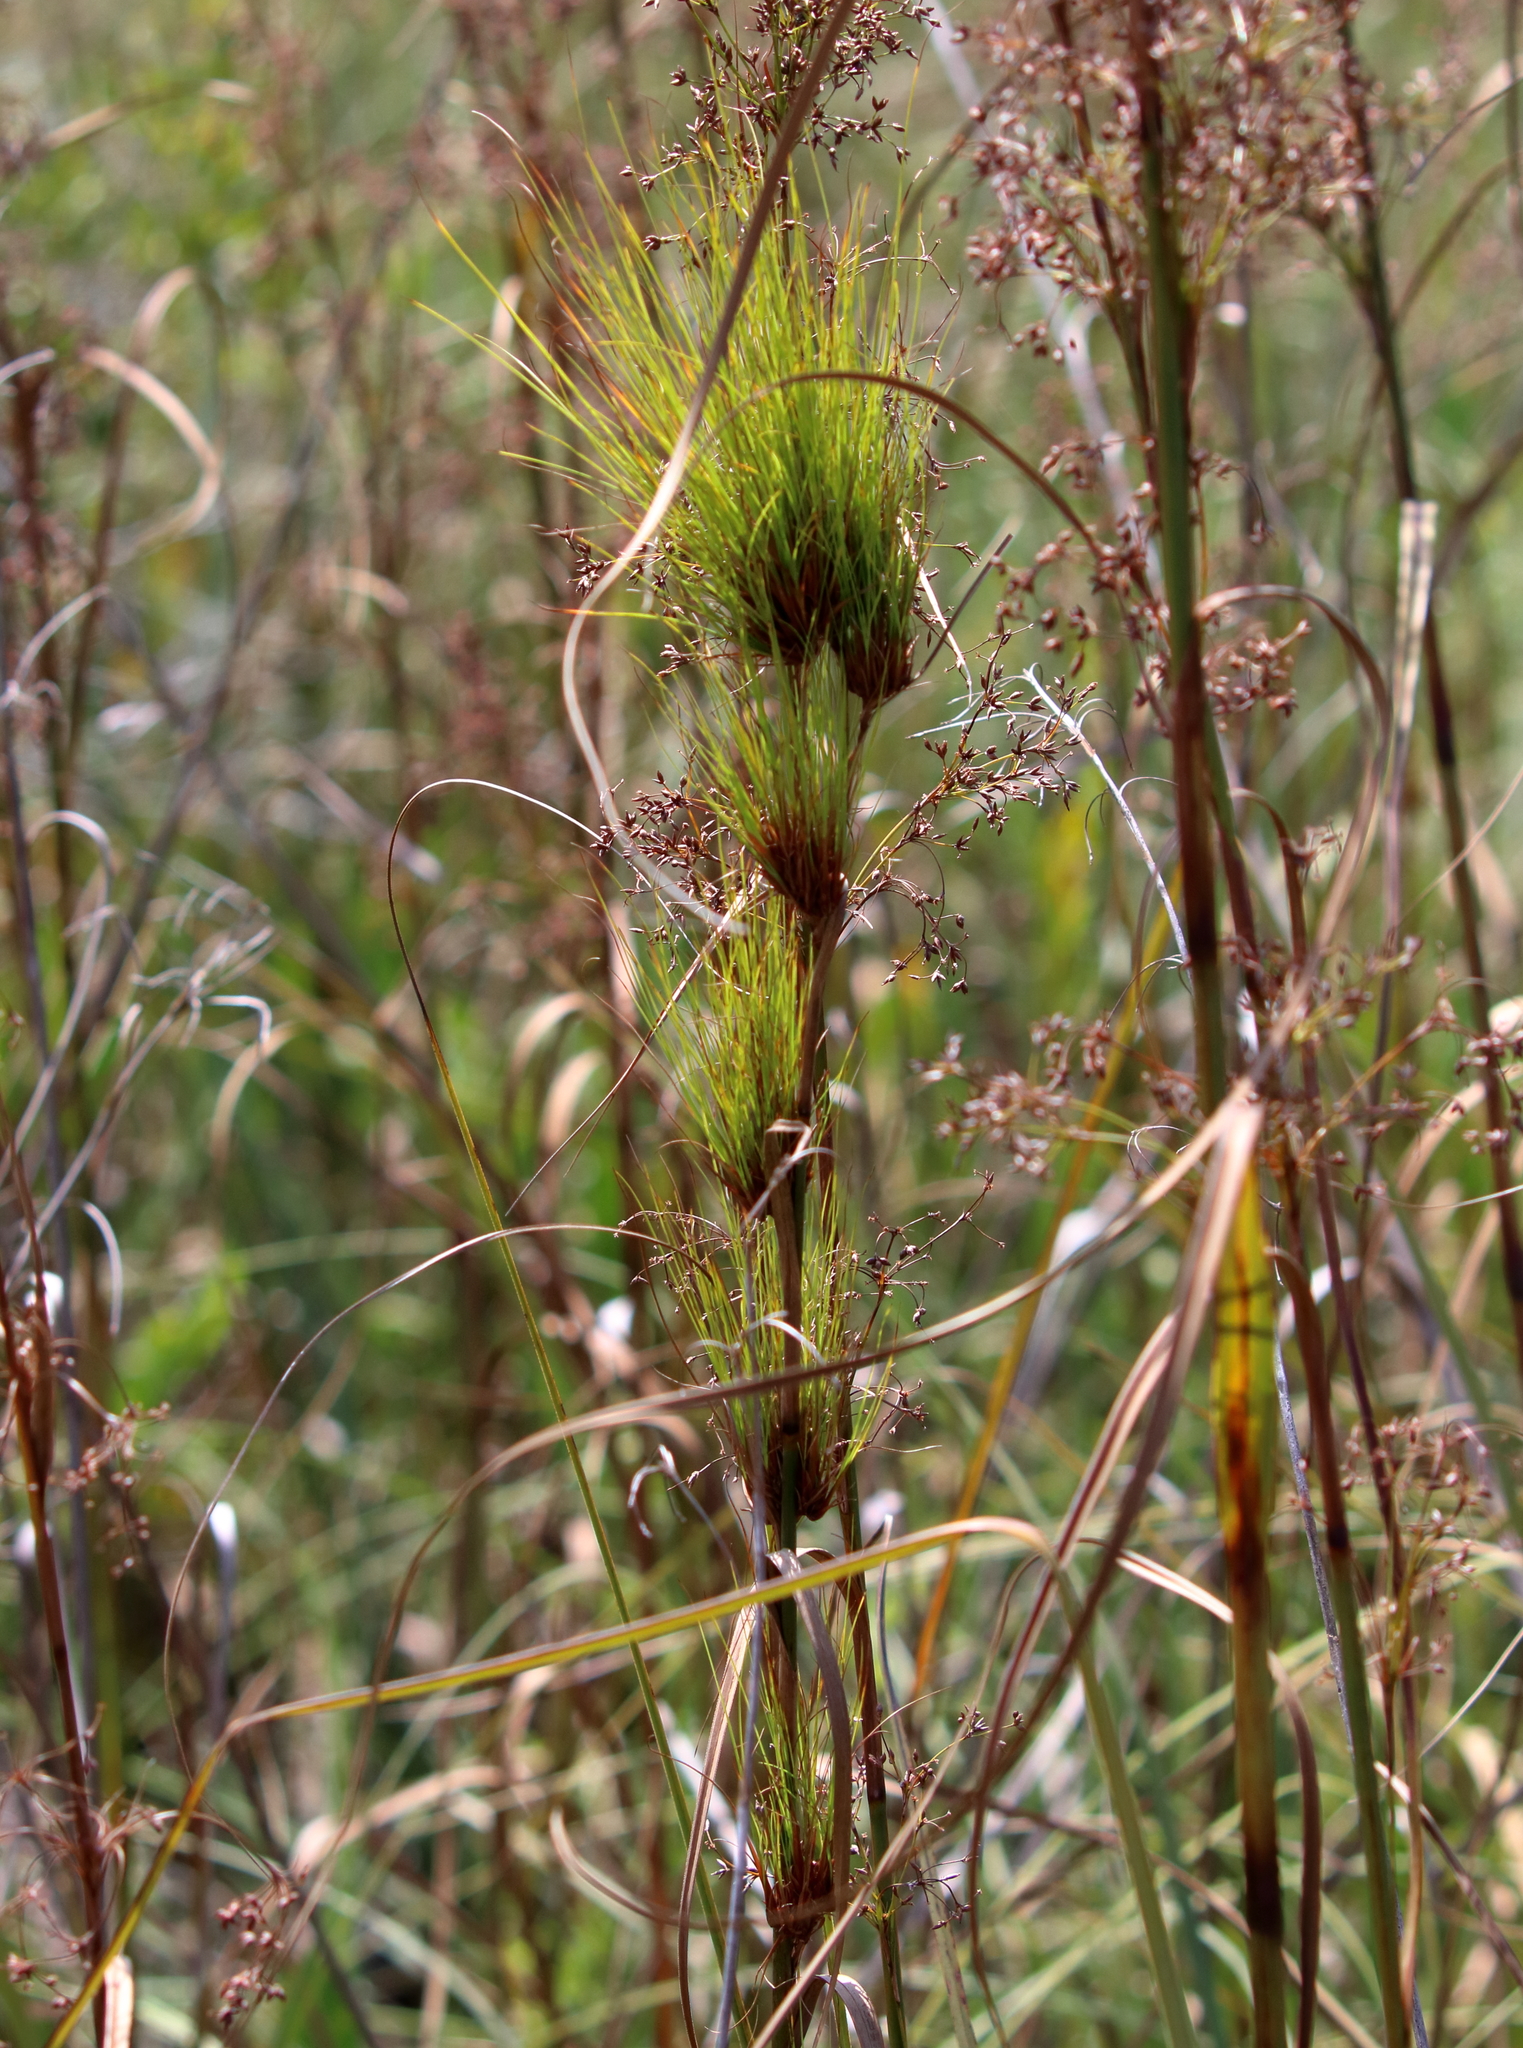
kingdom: Plantae
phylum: Tracheophyta
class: Liliopsida
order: Poales
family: Cyperaceae
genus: Cladium
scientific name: Cladium mariscus
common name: Great fen-sedge
